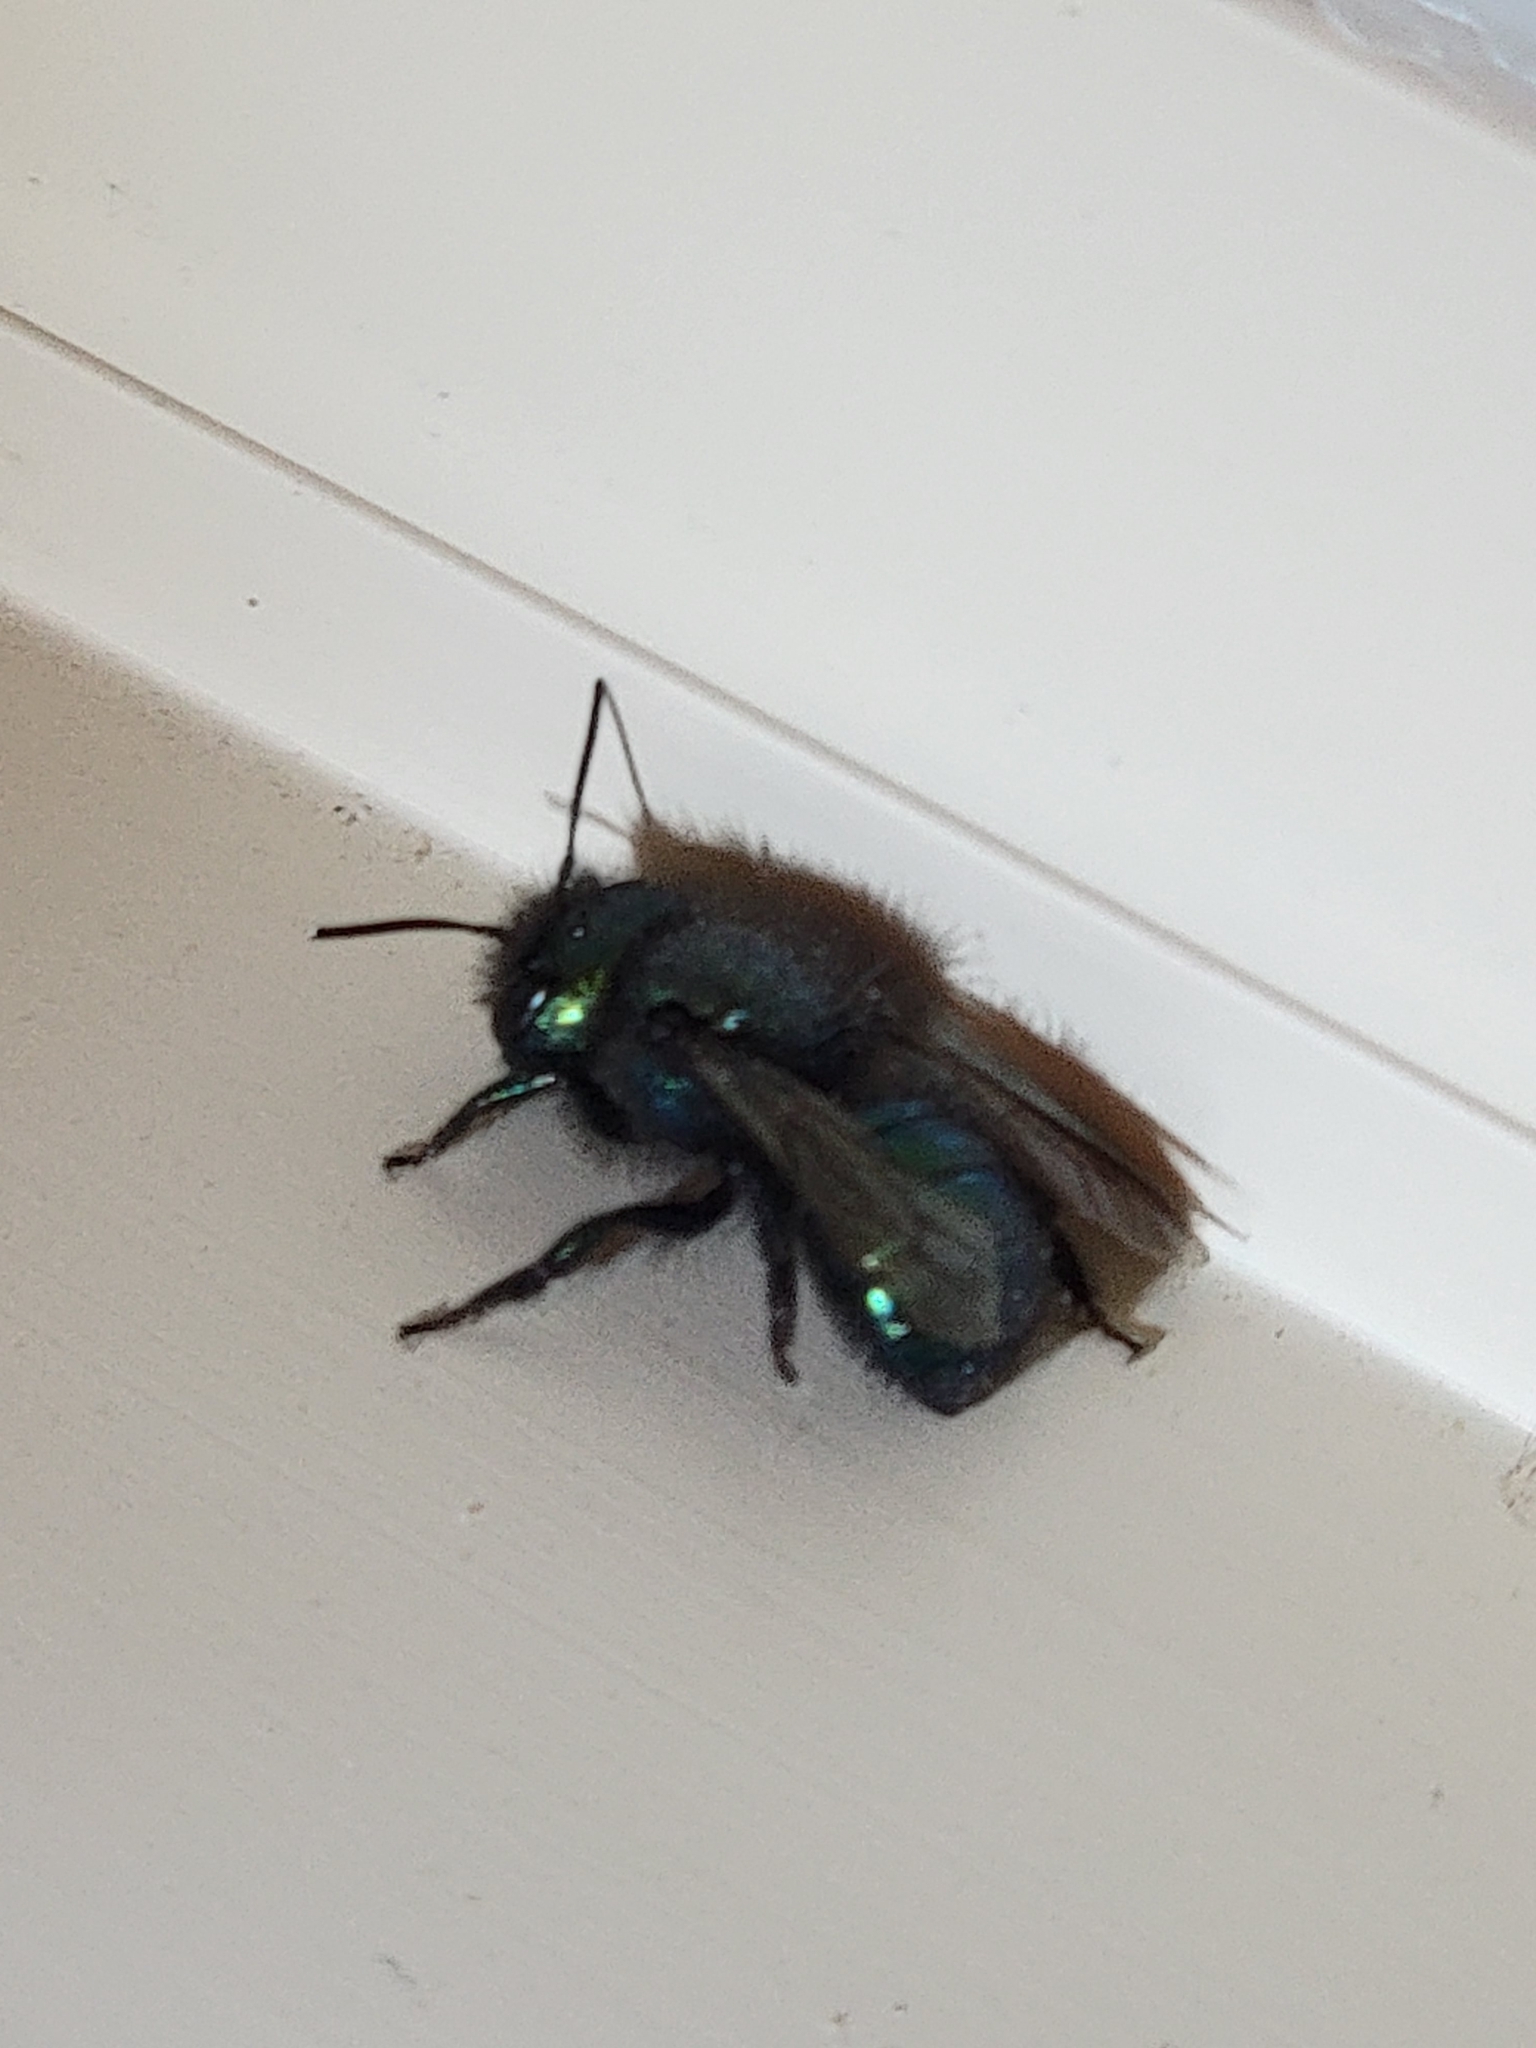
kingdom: Animalia
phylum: Arthropoda
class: Insecta
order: Hymenoptera
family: Megachilidae
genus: Osmia
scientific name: Osmia ribifloris
